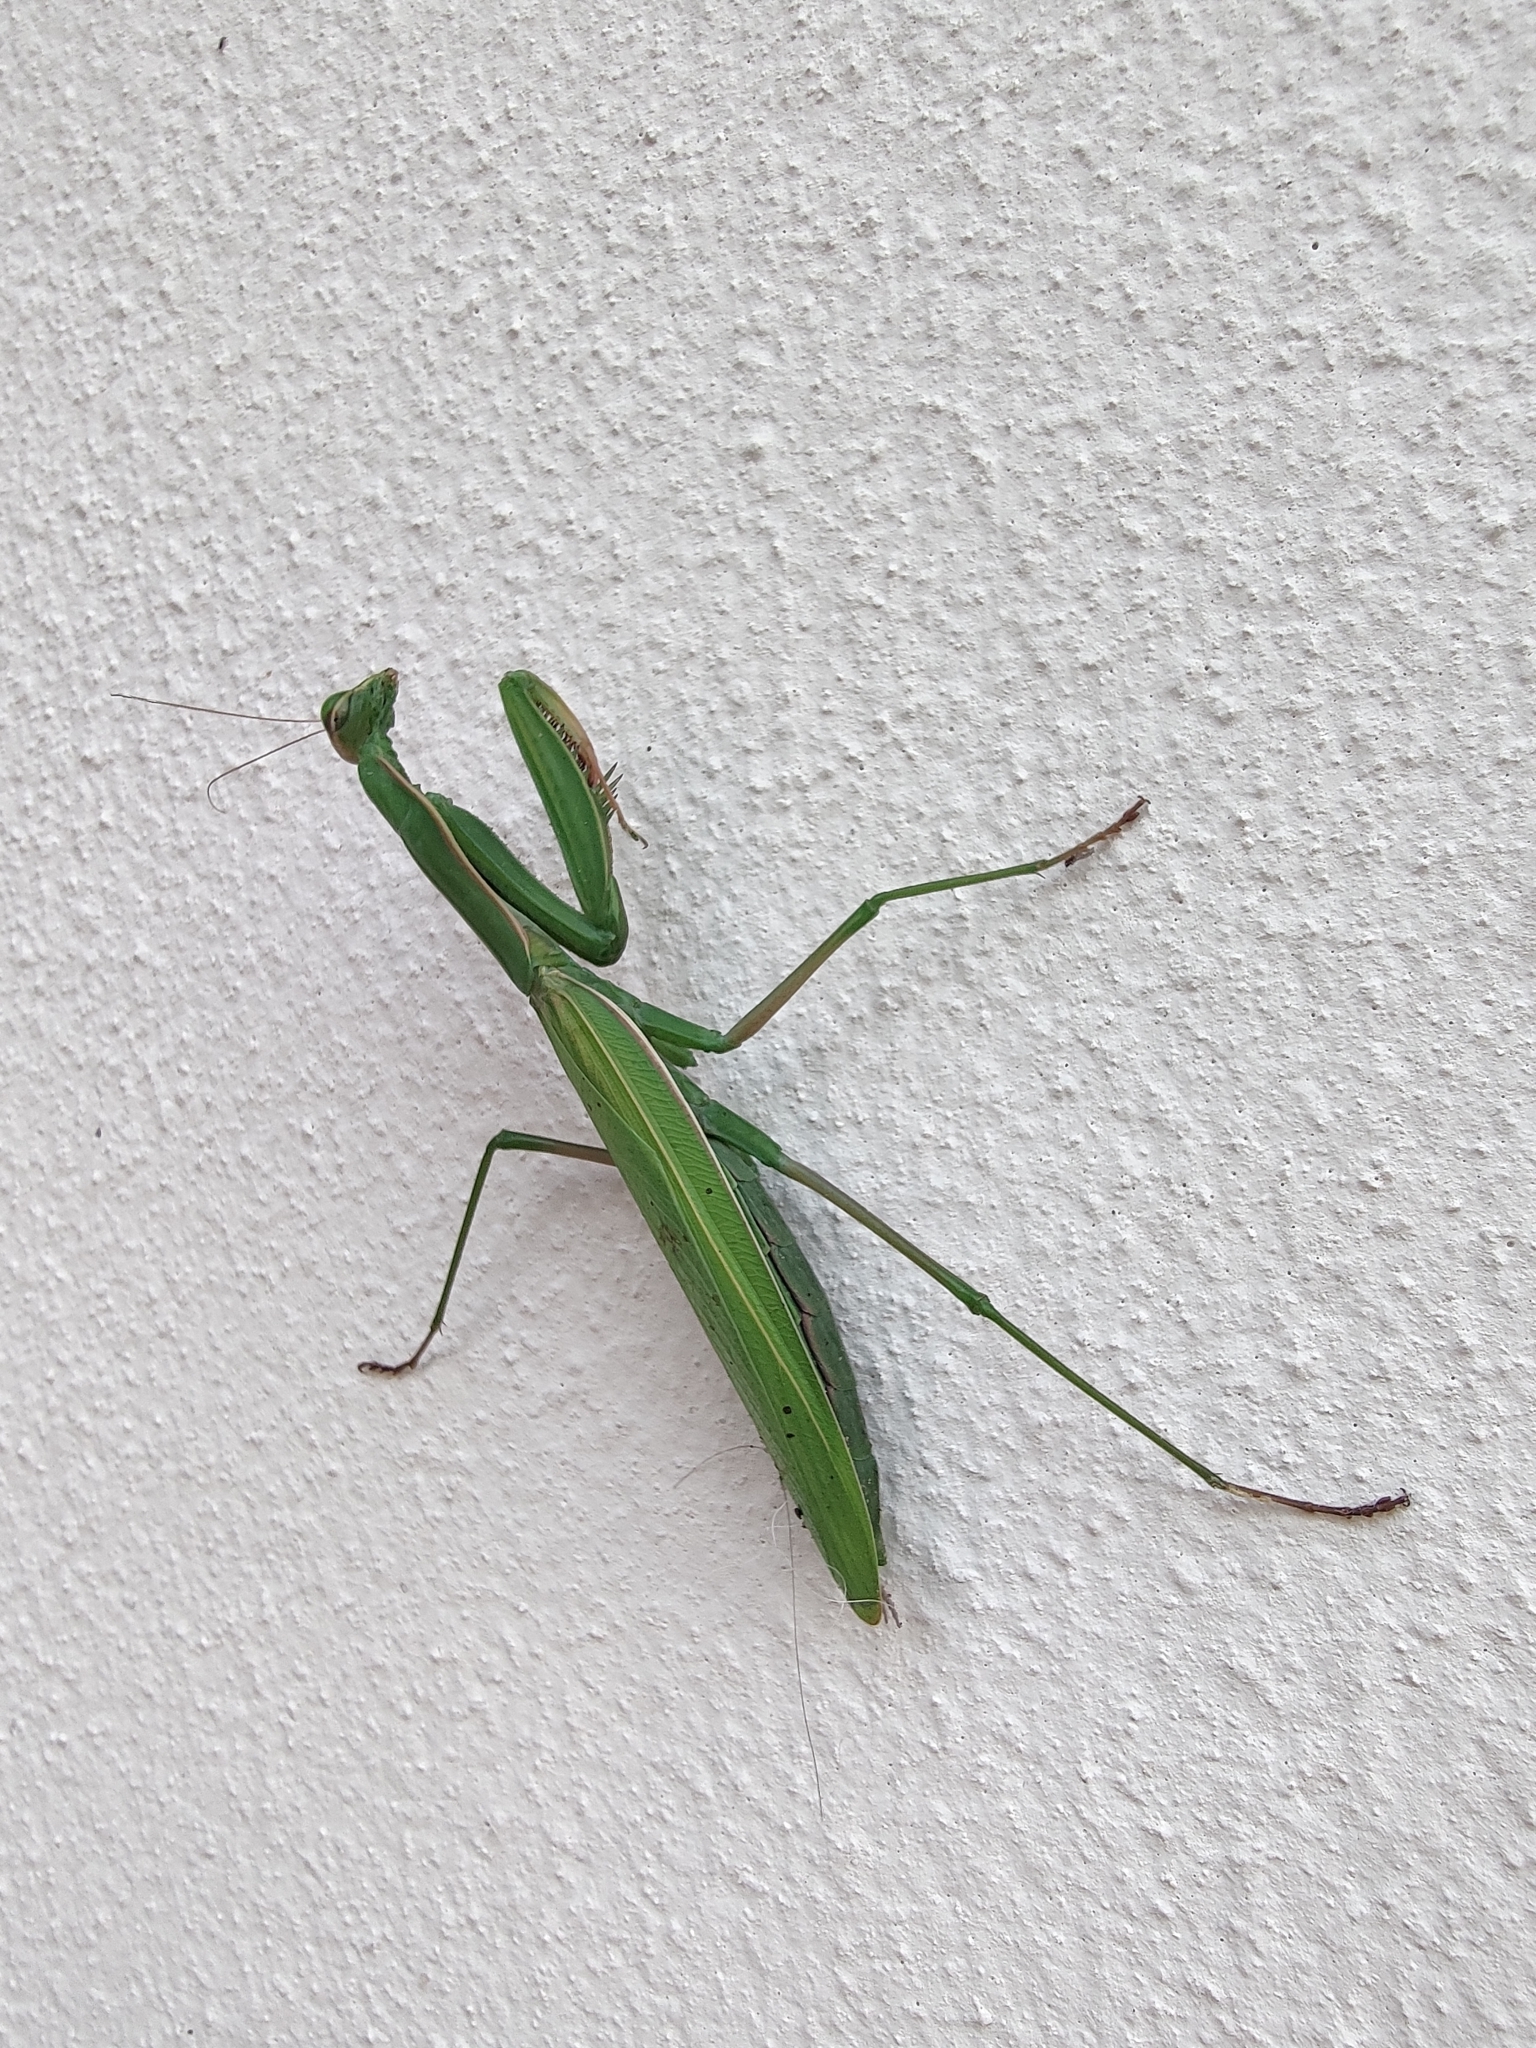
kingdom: Animalia
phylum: Arthropoda
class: Insecta
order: Mantodea
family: Mantidae
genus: Mantis
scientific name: Mantis religiosa
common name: Praying mantis
